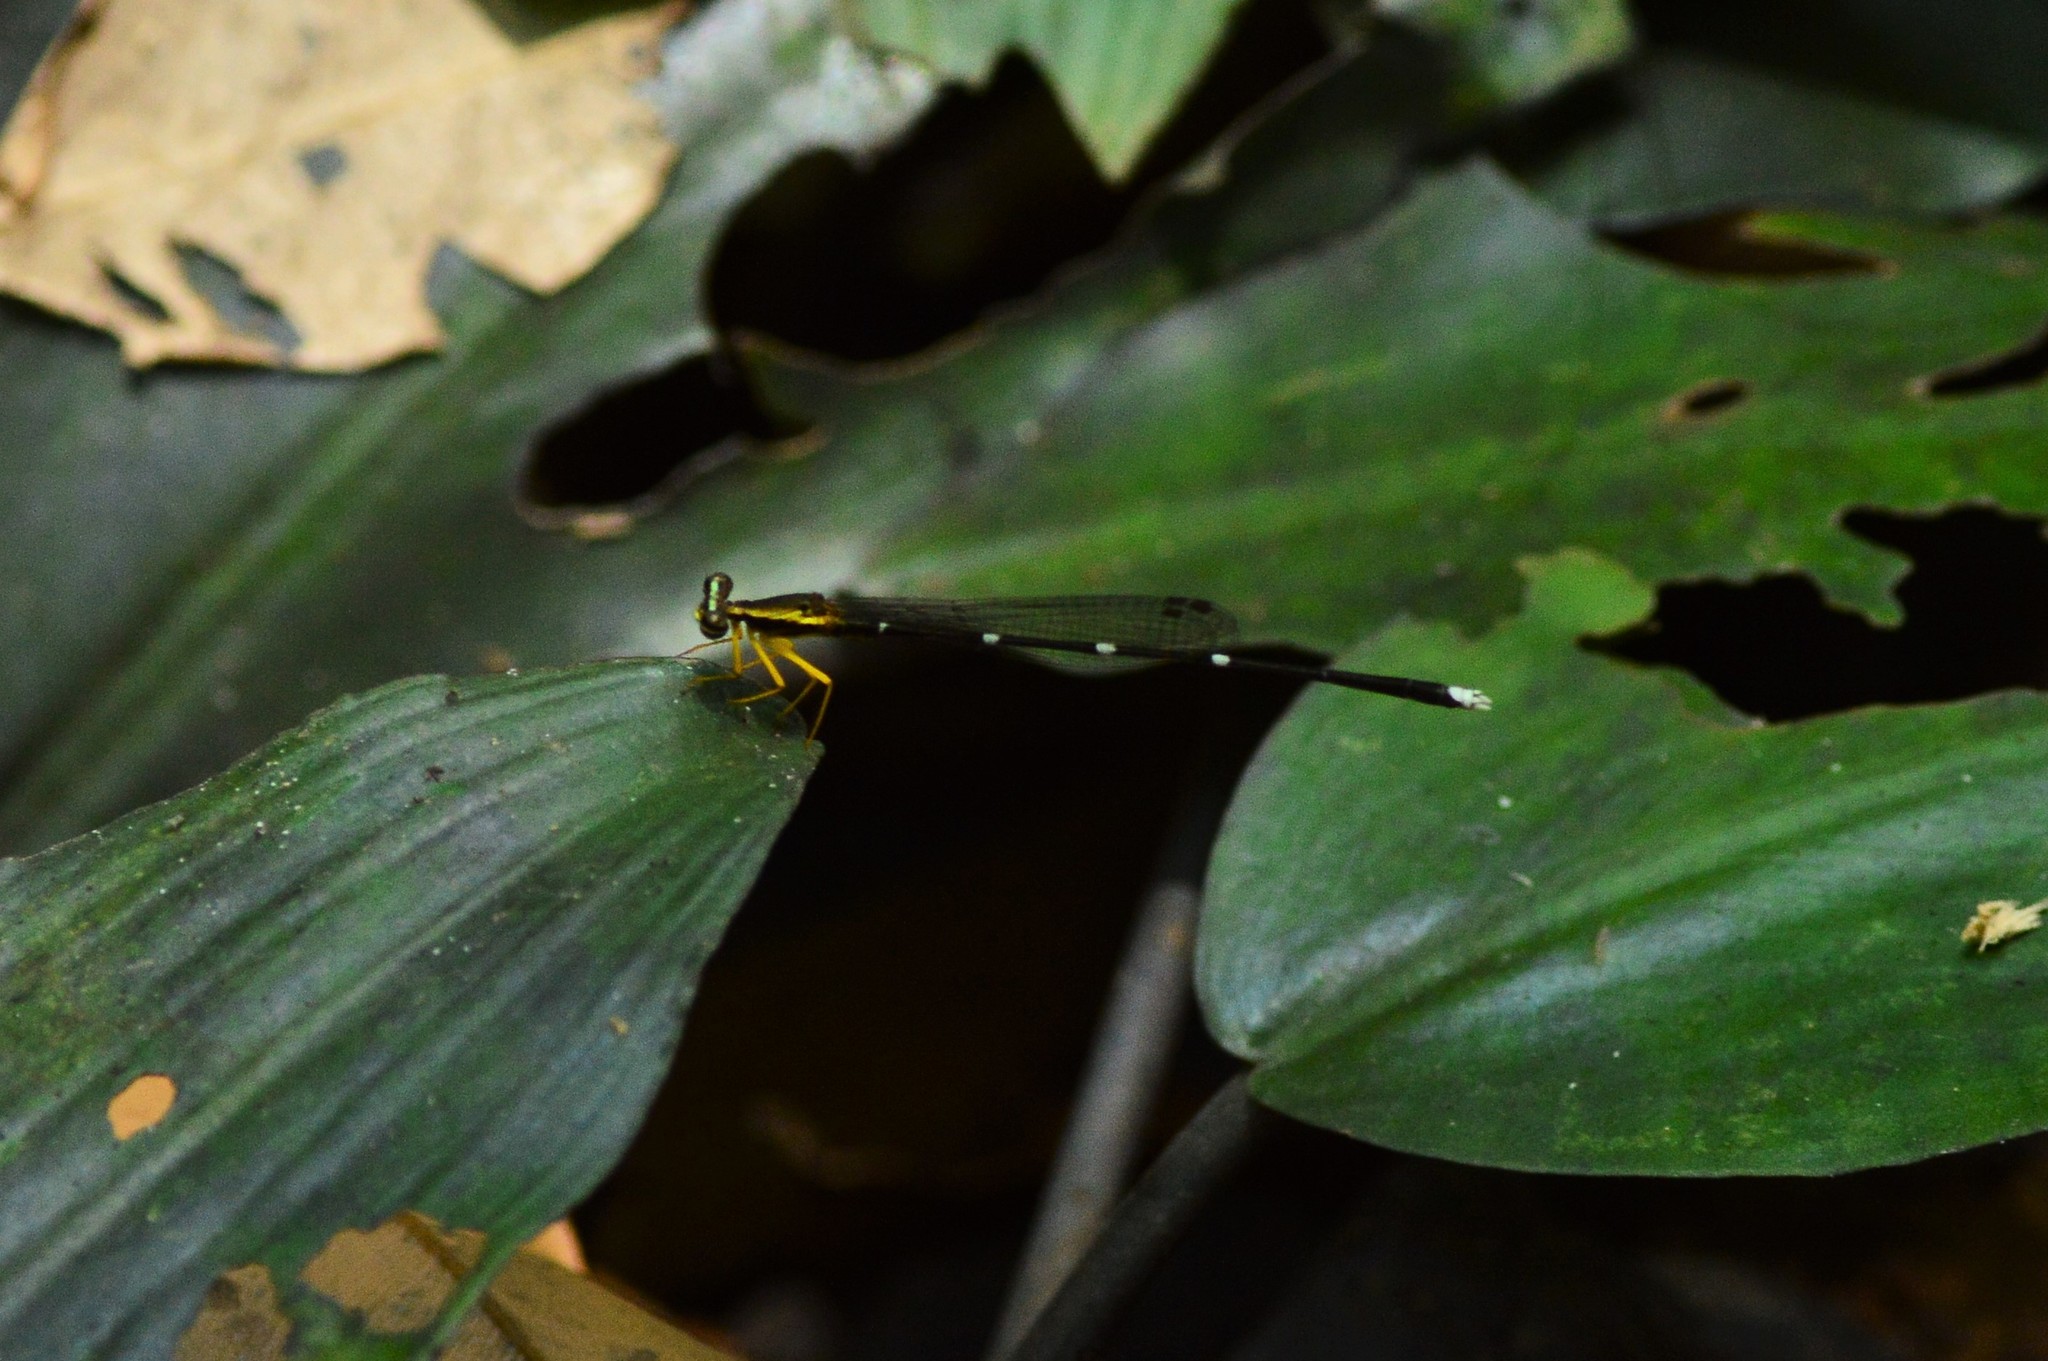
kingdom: Animalia
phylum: Arthropoda
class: Insecta
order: Odonata
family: Platycnemididae
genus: Copera
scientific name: Copera vittata
